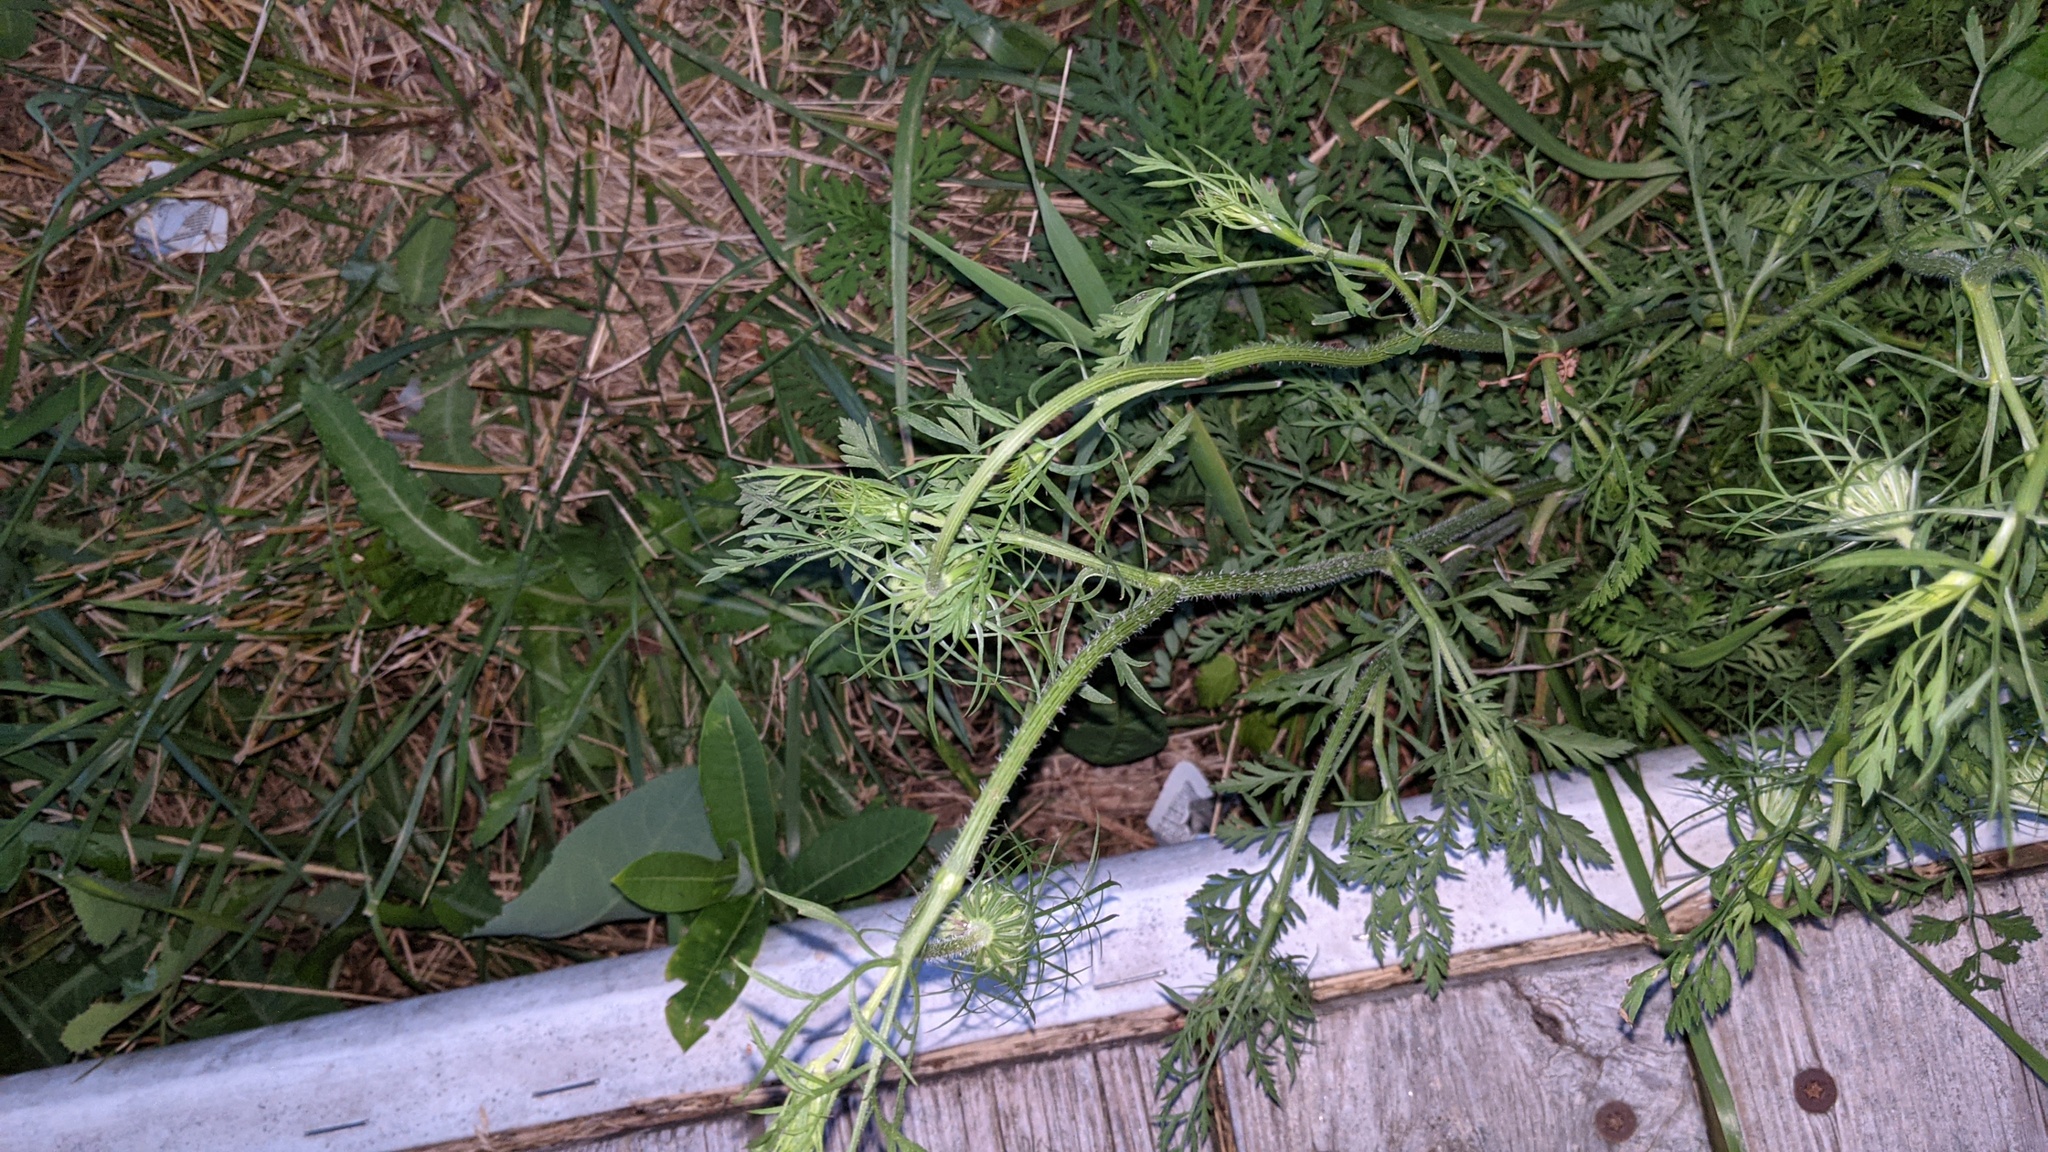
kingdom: Plantae
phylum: Tracheophyta
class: Magnoliopsida
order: Apiales
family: Apiaceae
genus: Daucus
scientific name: Daucus carota
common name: Wild carrot
